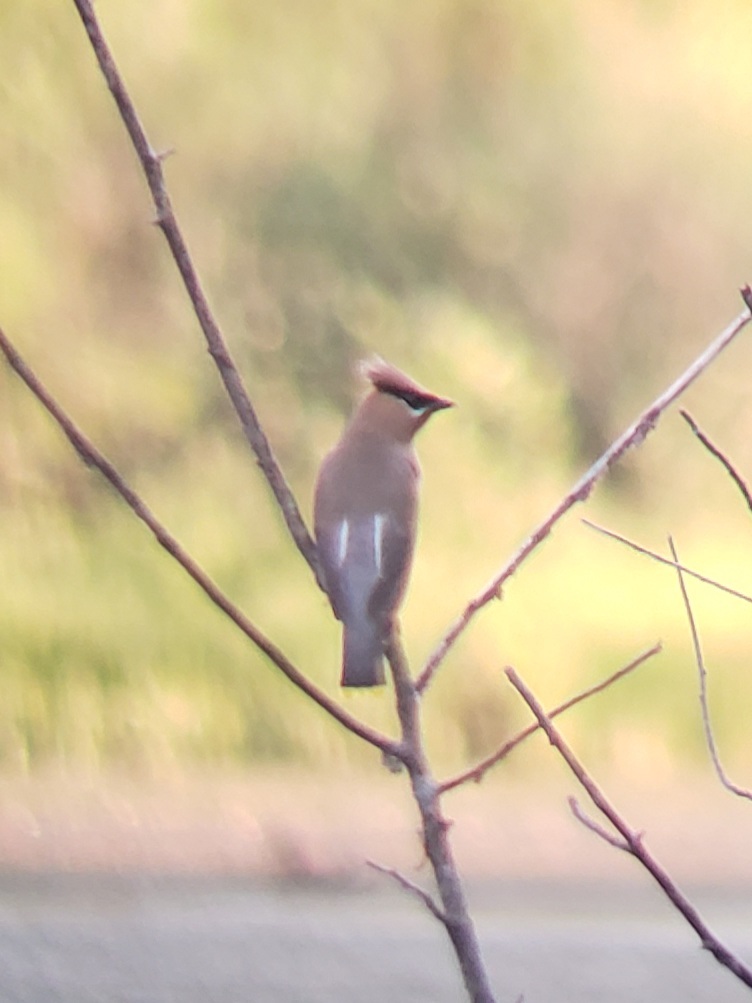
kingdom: Animalia
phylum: Chordata
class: Aves
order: Passeriformes
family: Bombycillidae
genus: Bombycilla
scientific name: Bombycilla cedrorum
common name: Cedar waxwing
